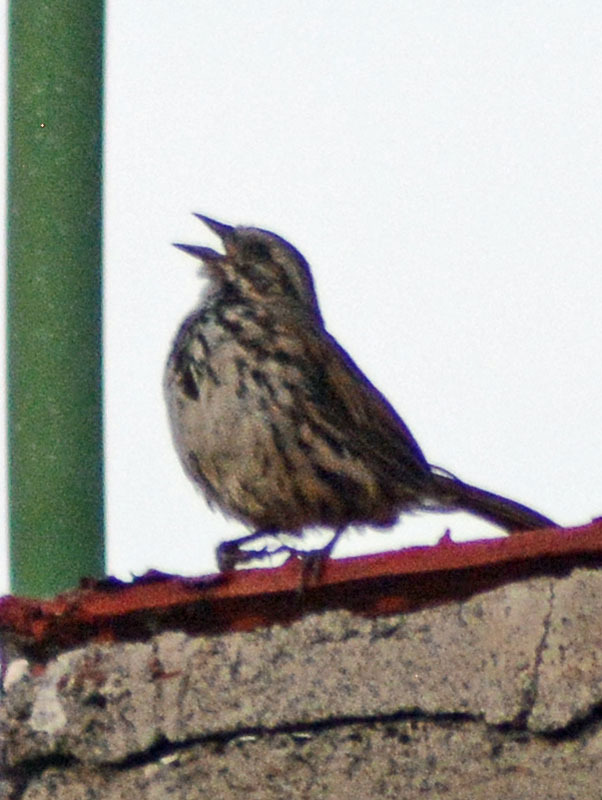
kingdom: Animalia
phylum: Chordata
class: Aves
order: Passeriformes
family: Passerellidae
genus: Melospiza
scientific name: Melospiza melodia
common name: Song sparrow
